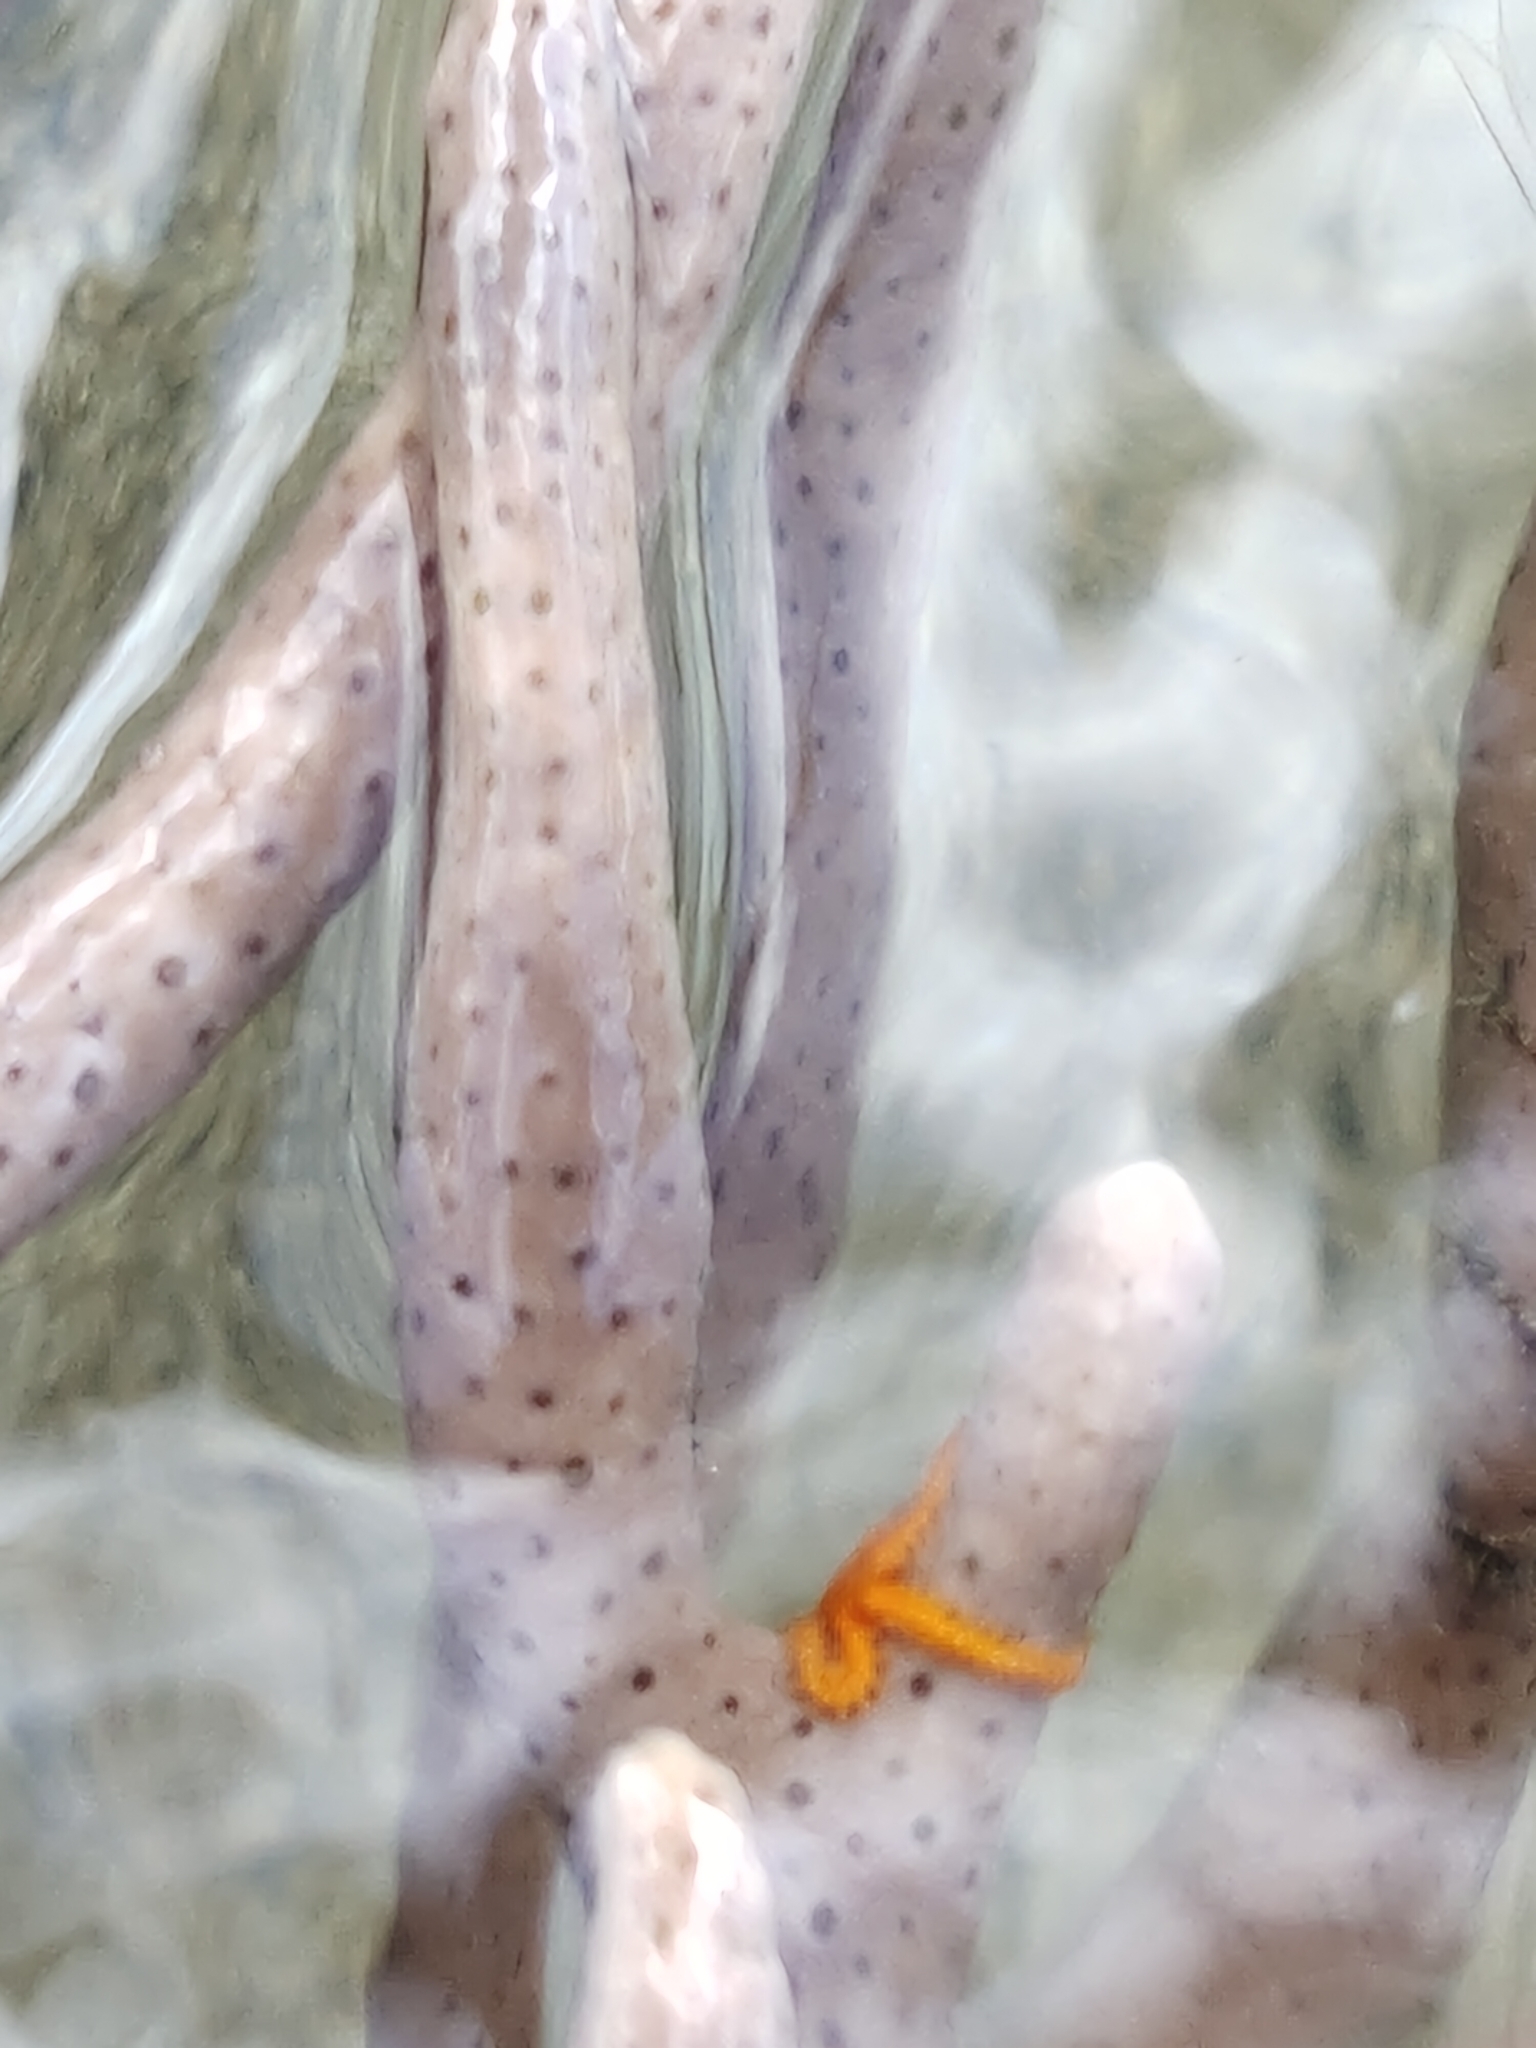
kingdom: Animalia
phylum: Echinodermata
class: Ophiuroidea
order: Amphilepidida
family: Ophiotrichidae
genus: Ophiothela
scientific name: Ophiothela mirabilis
